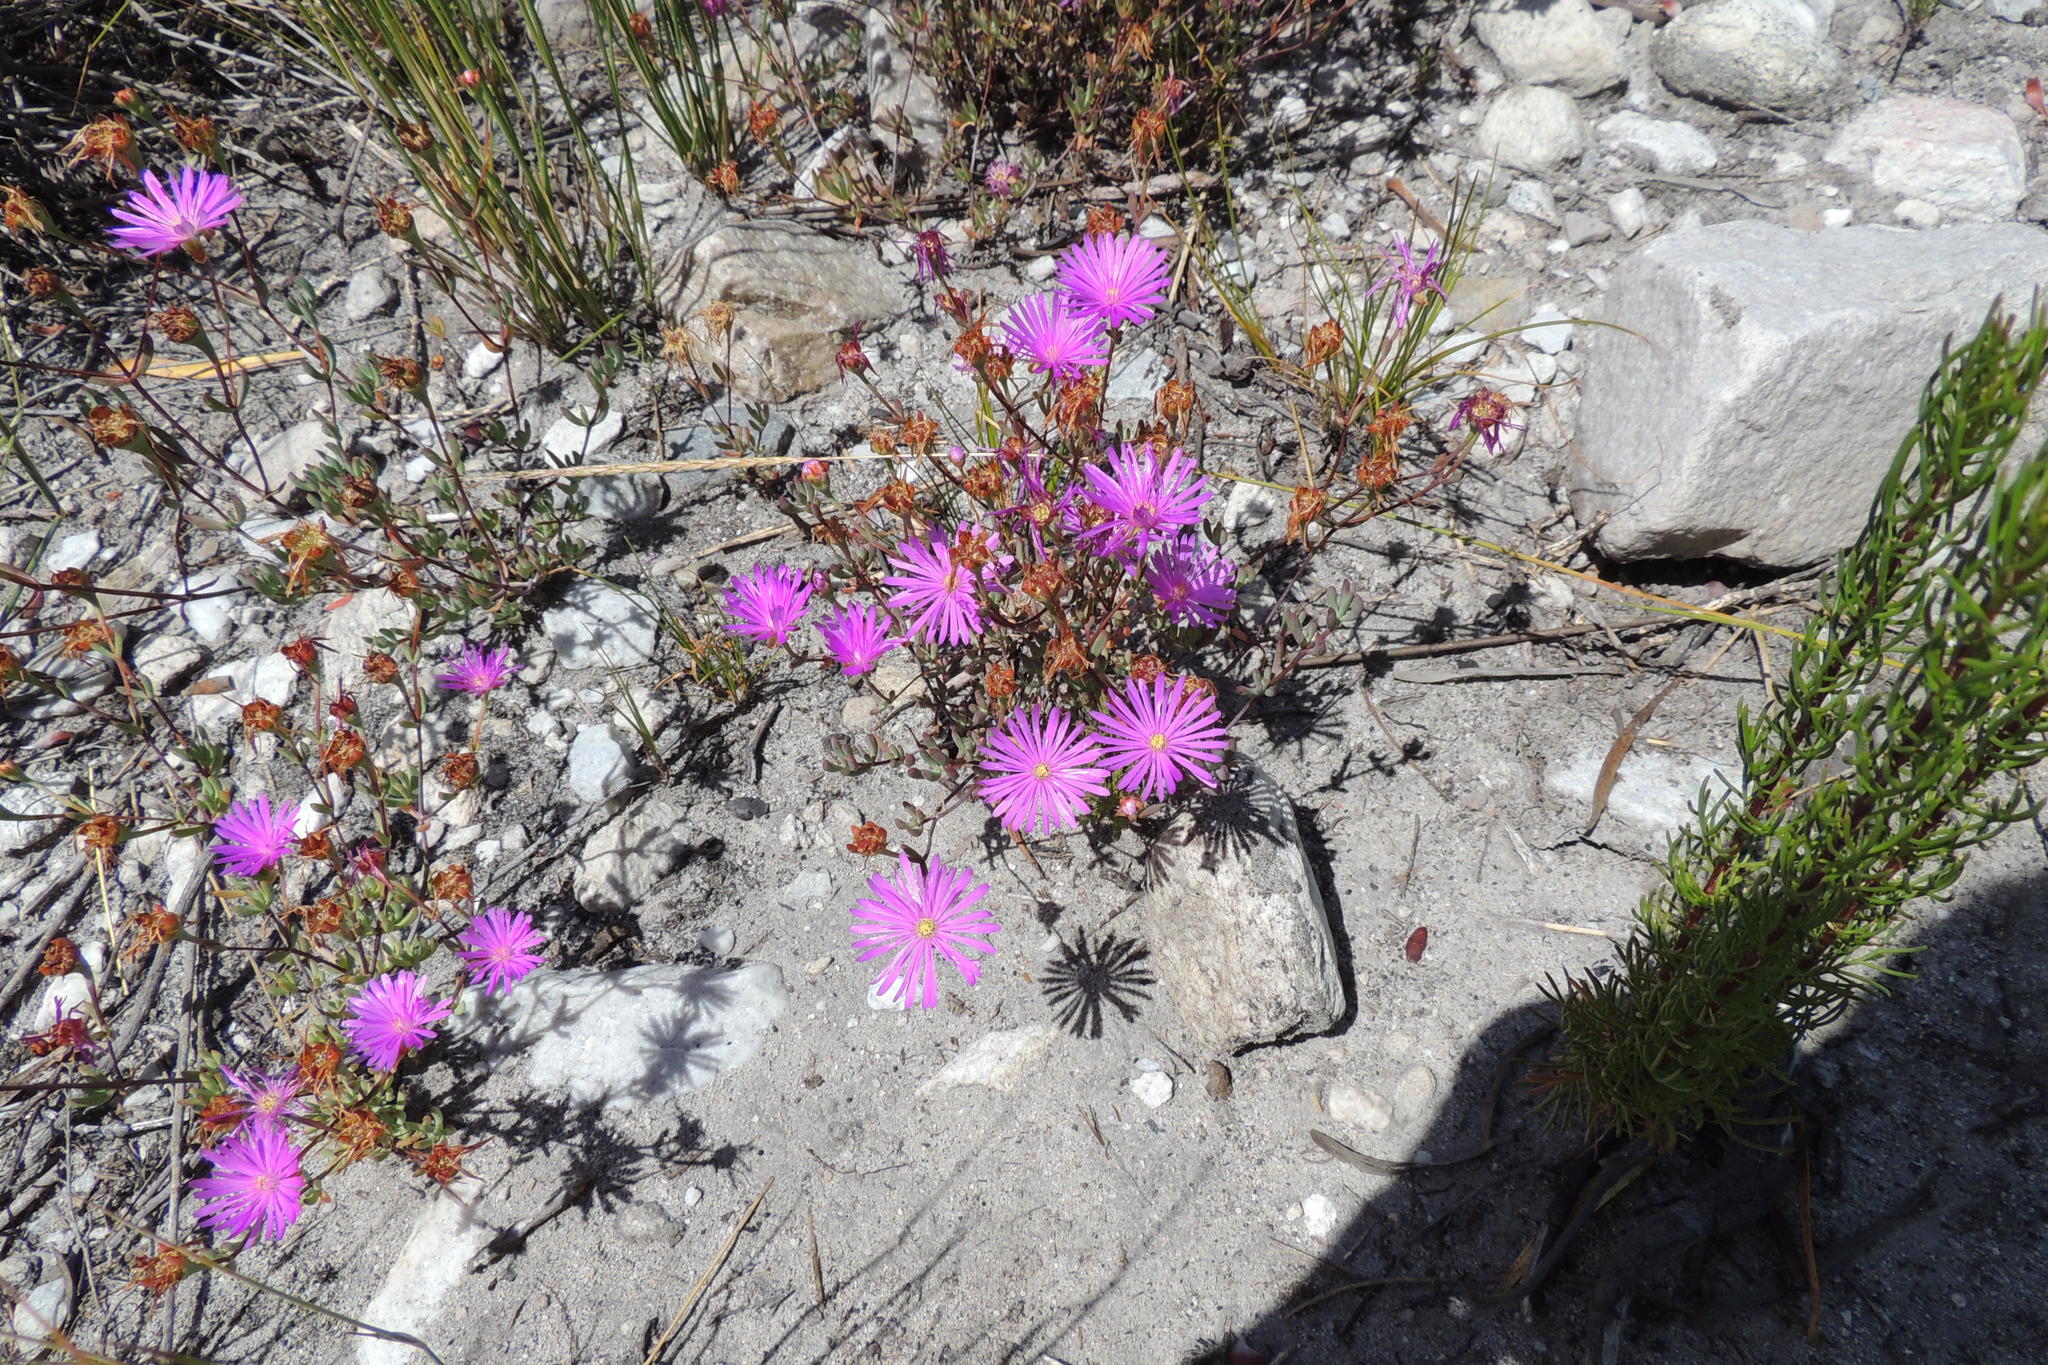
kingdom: Plantae
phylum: Tracheophyta
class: Magnoliopsida
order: Caryophyllales
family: Aizoaceae
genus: Lampranthus
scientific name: Lampranthus leptosepalus
